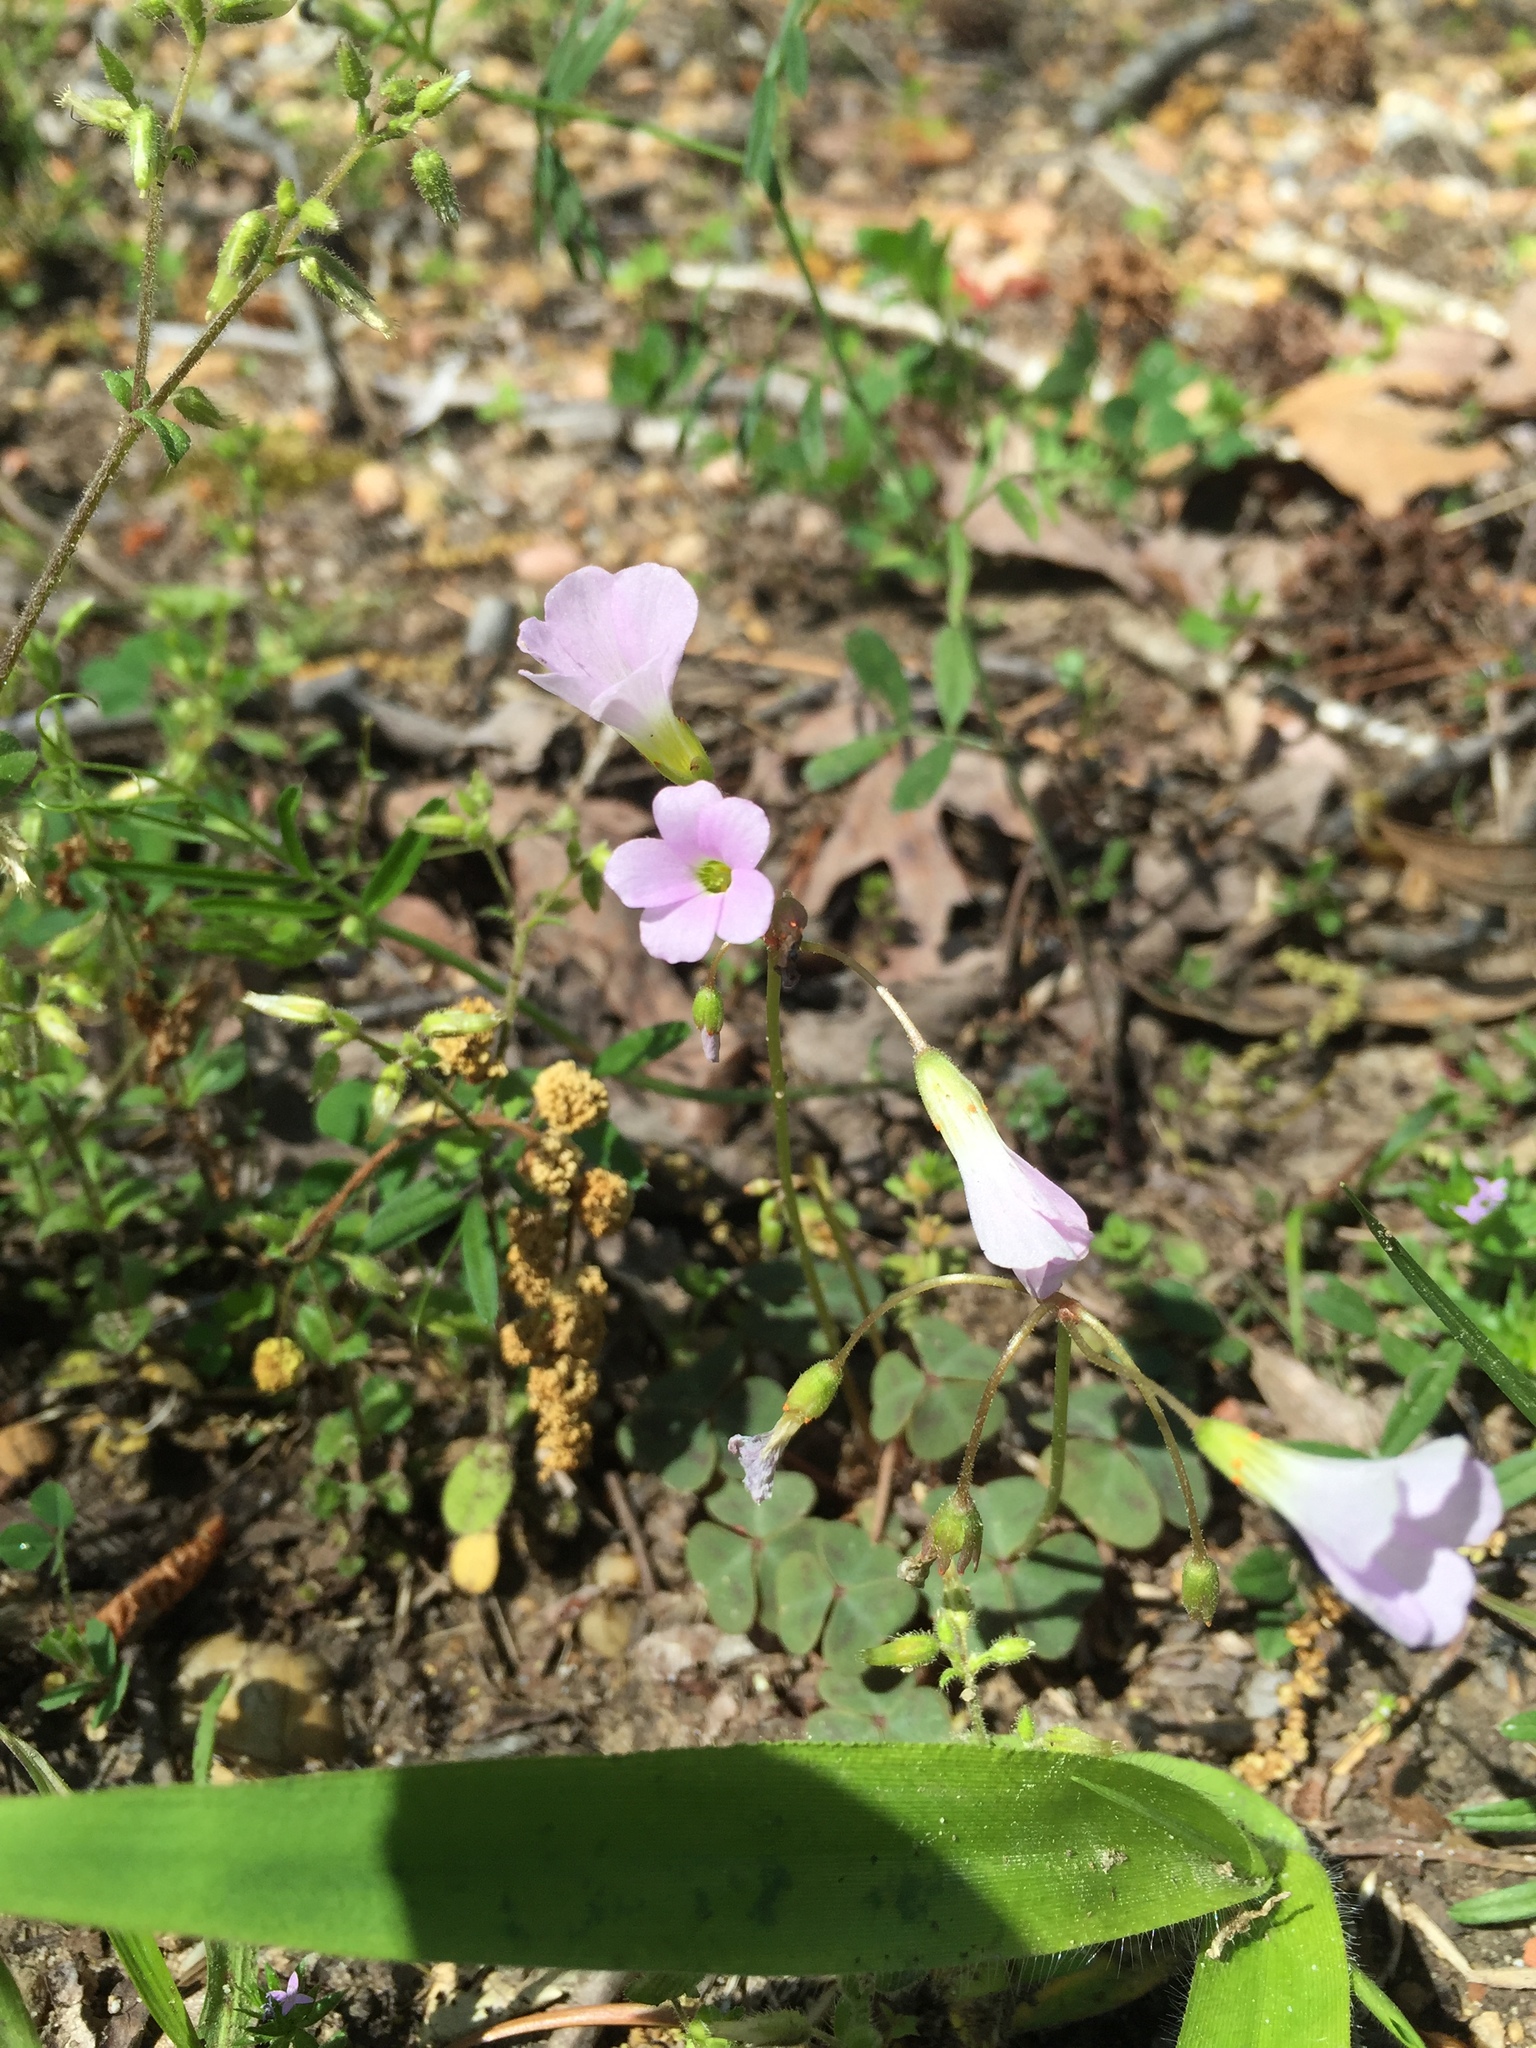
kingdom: Plantae
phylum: Tracheophyta
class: Magnoliopsida
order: Oxalidales
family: Oxalidaceae
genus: Oxalis
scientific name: Oxalis violacea
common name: Violet wood-sorrel
